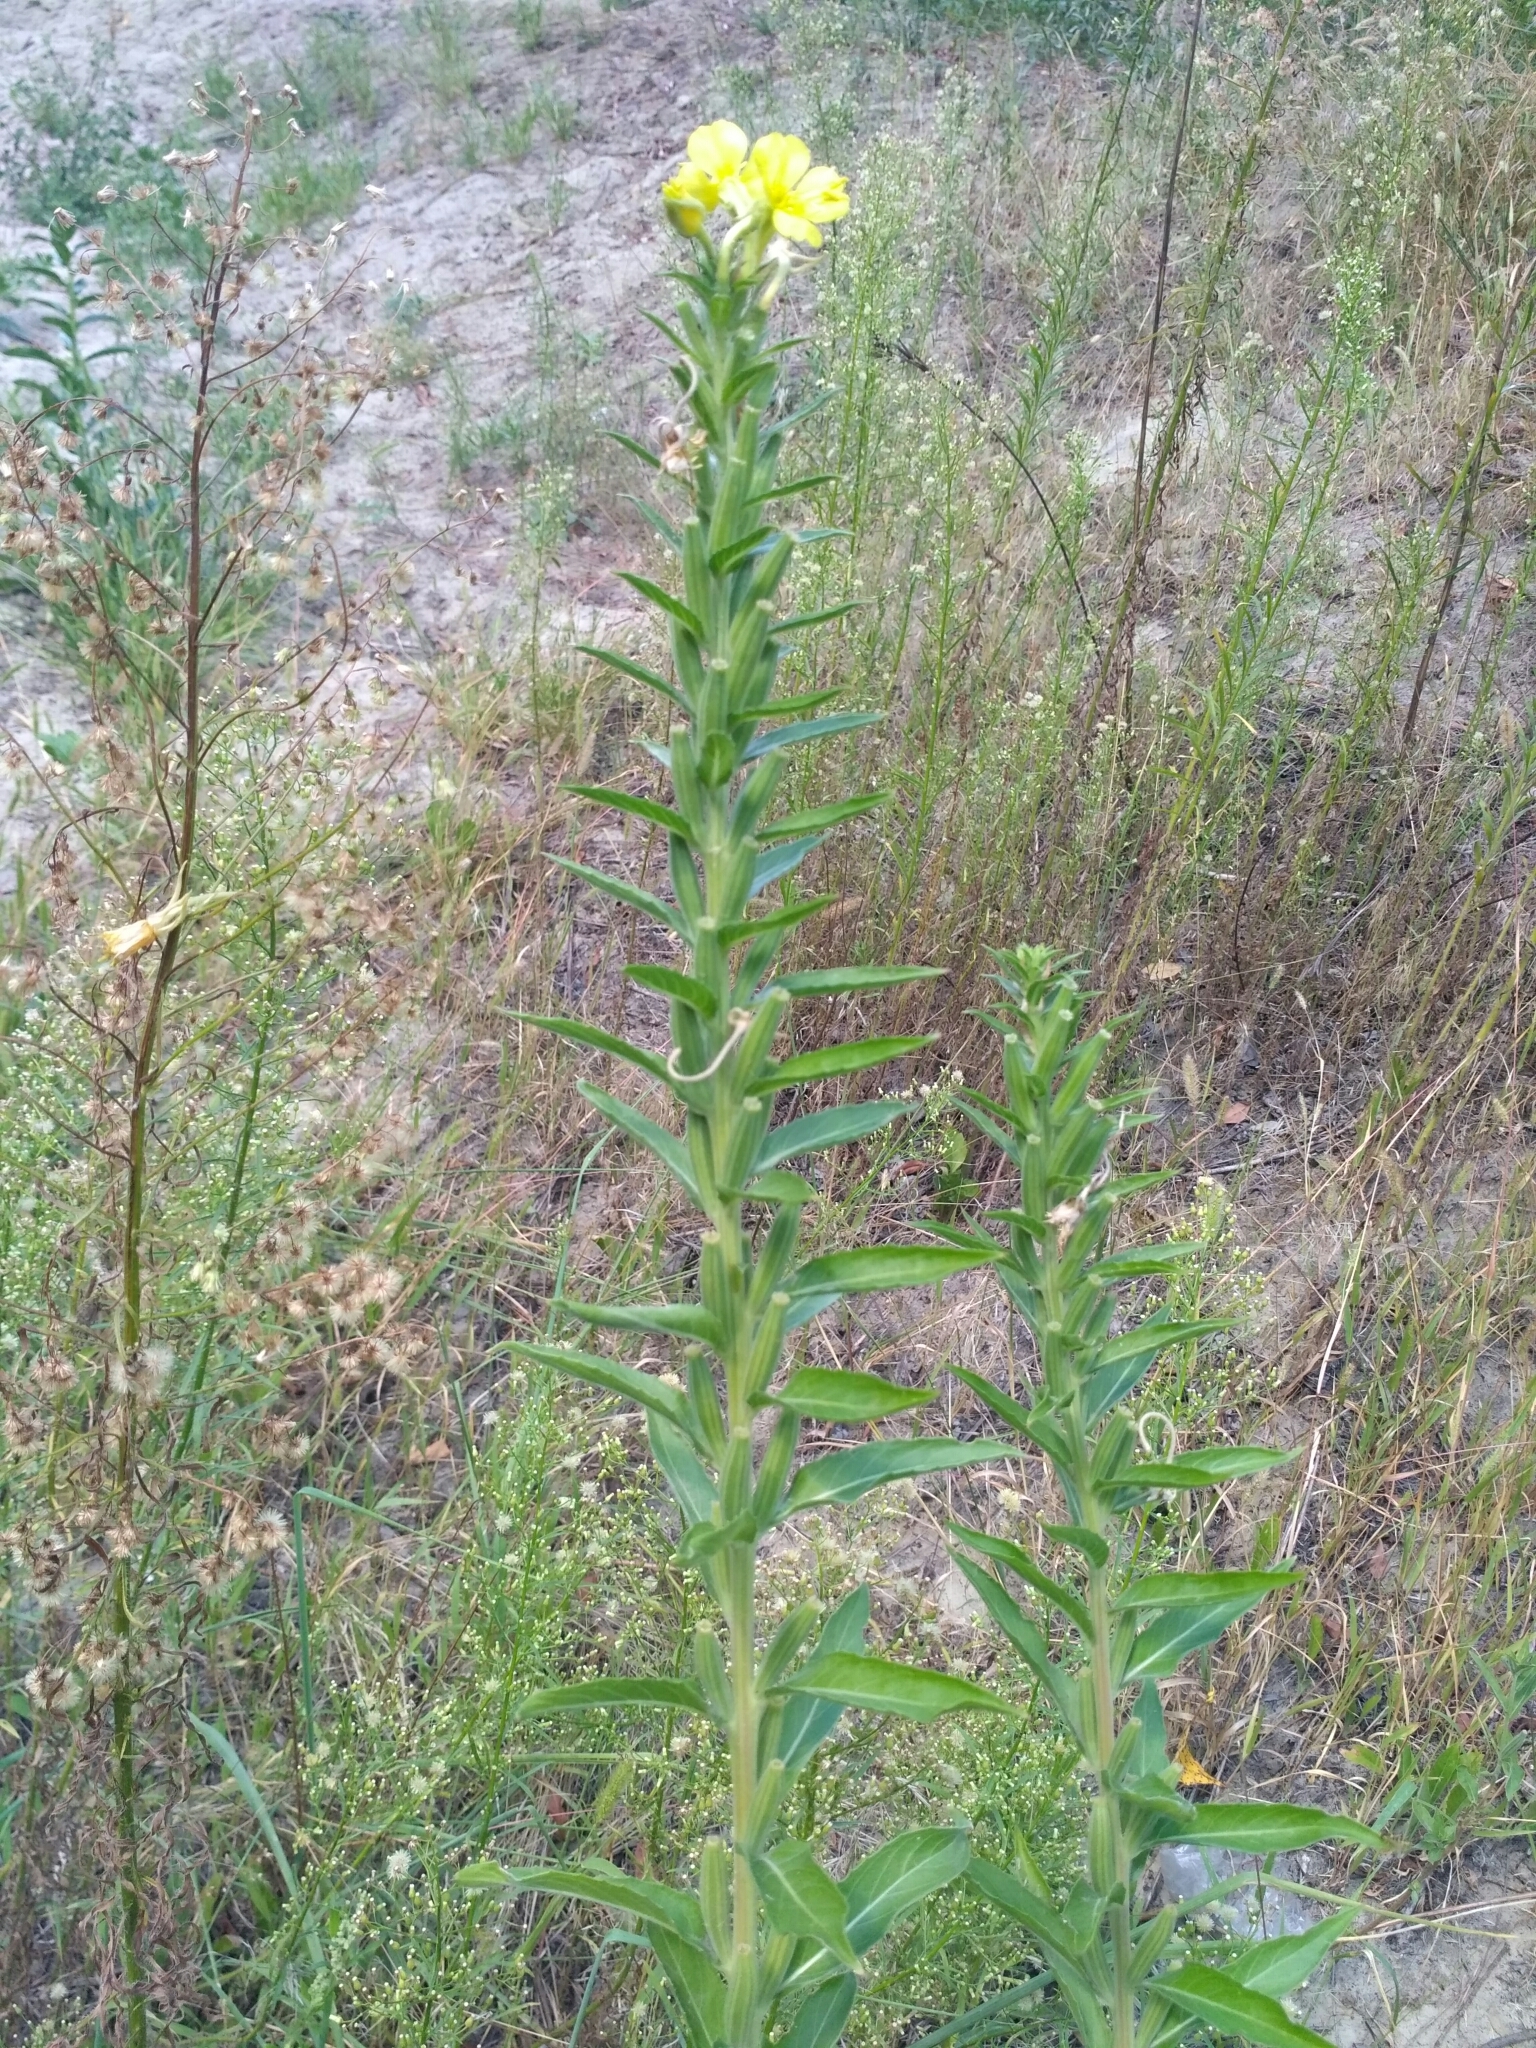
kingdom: Plantae
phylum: Tracheophyta
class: Magnoliopsida
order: Myrtales
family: Onagraceae
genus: Oenothera
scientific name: Oenothera biennis
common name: Common evening-primrose
